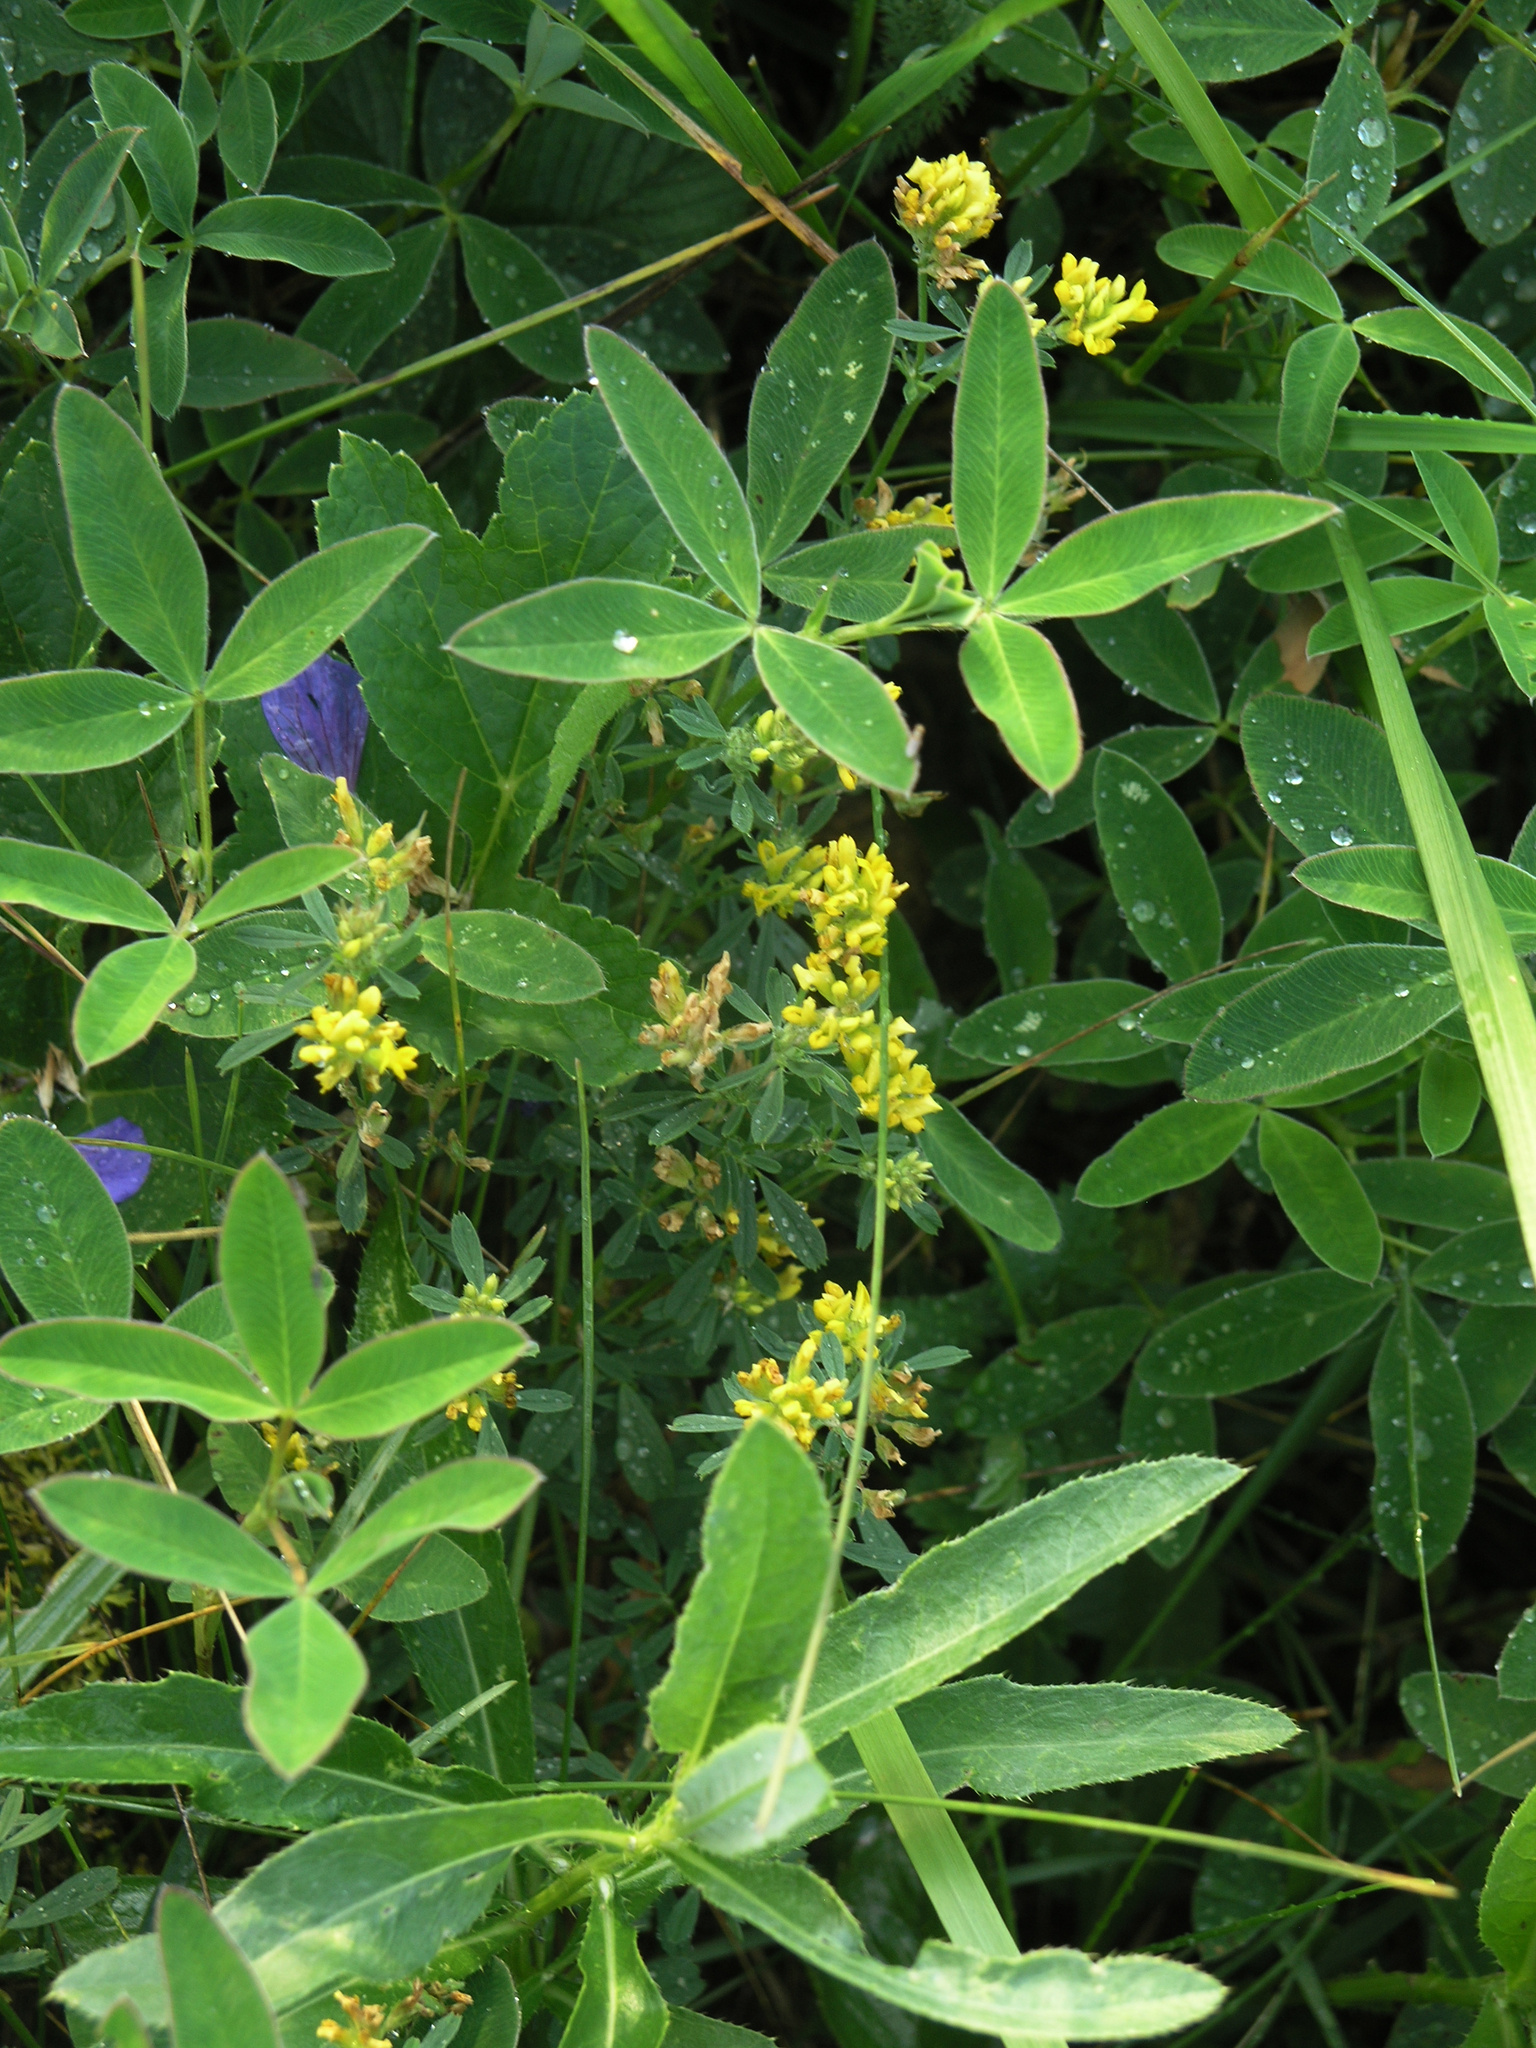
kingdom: Plantae
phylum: Tracheophyta
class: Magnoliopsida
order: Fabales
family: Fabaceae
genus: Medicago
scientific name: Medicago falcata
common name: Sickle medick
